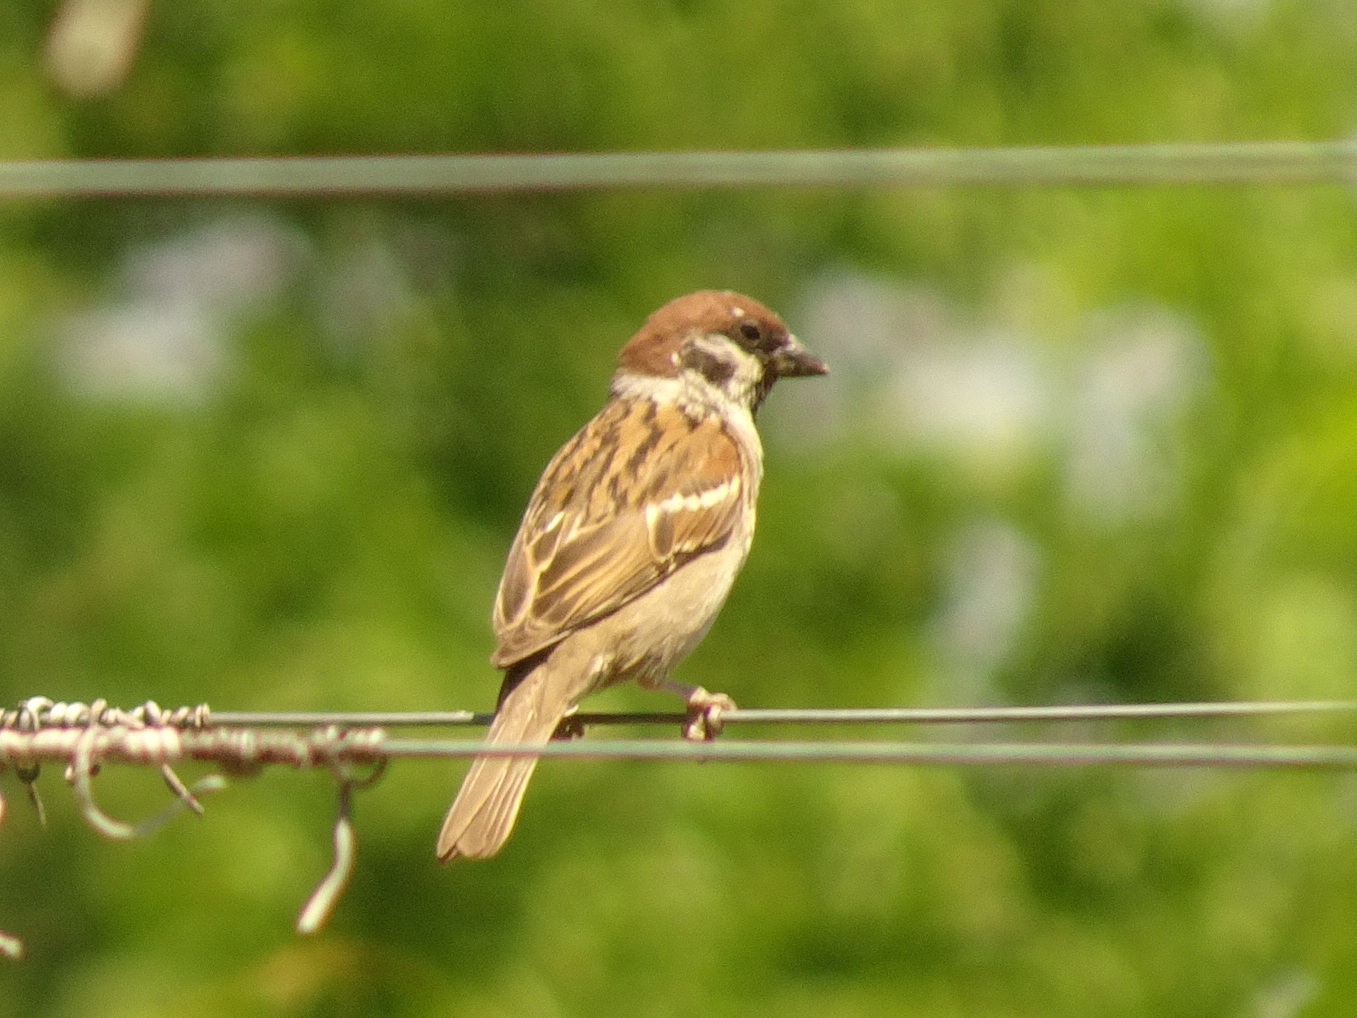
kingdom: Animalia
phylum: Chordata
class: Aves
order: Passeriformes
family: Passeridae
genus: Passer
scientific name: Passer montanus
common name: Eurasian tree sparrow
